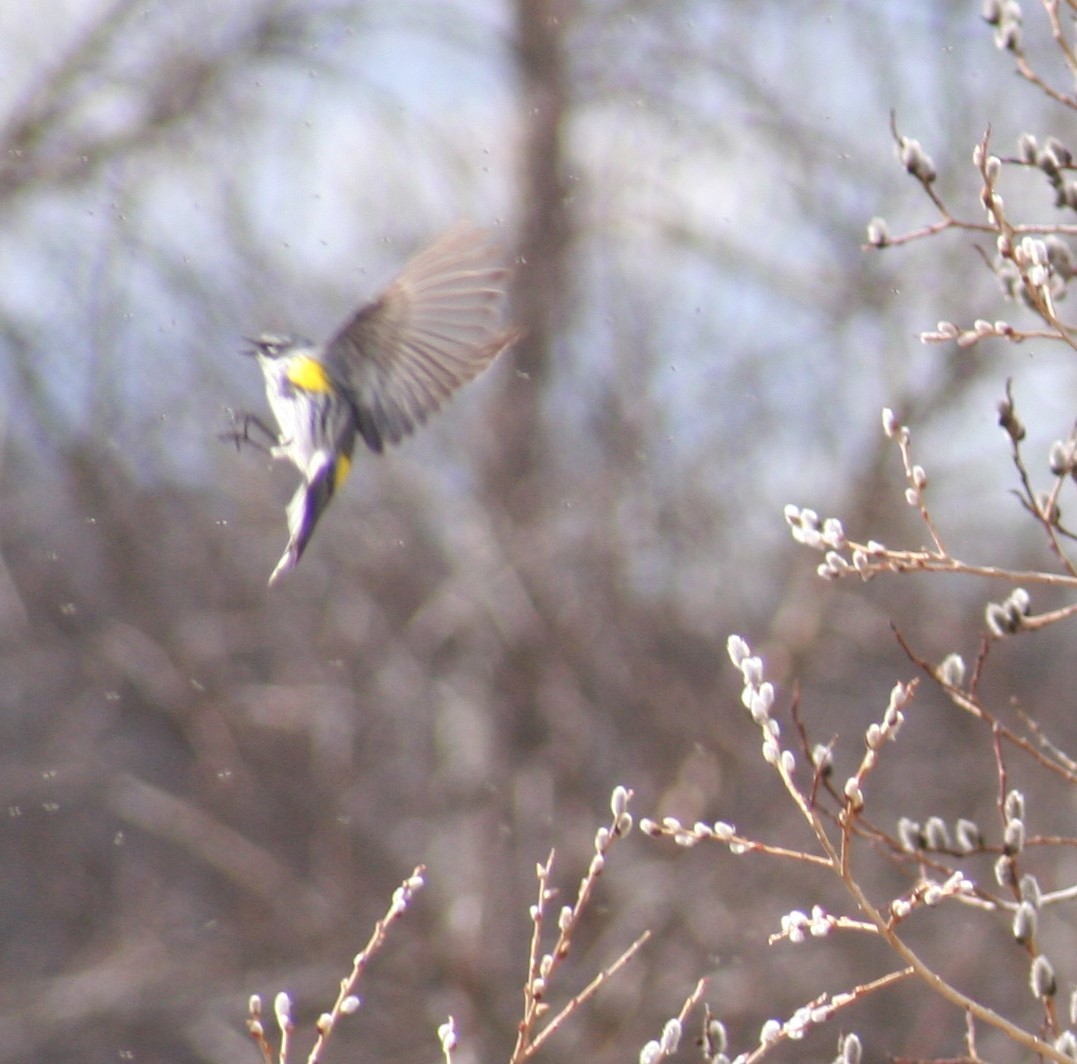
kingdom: Animalia
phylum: Chordata
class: Aves
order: Passeriformes
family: Parulidae
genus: Setophaga
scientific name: Setophaga coronata
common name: Myrtle warbler
